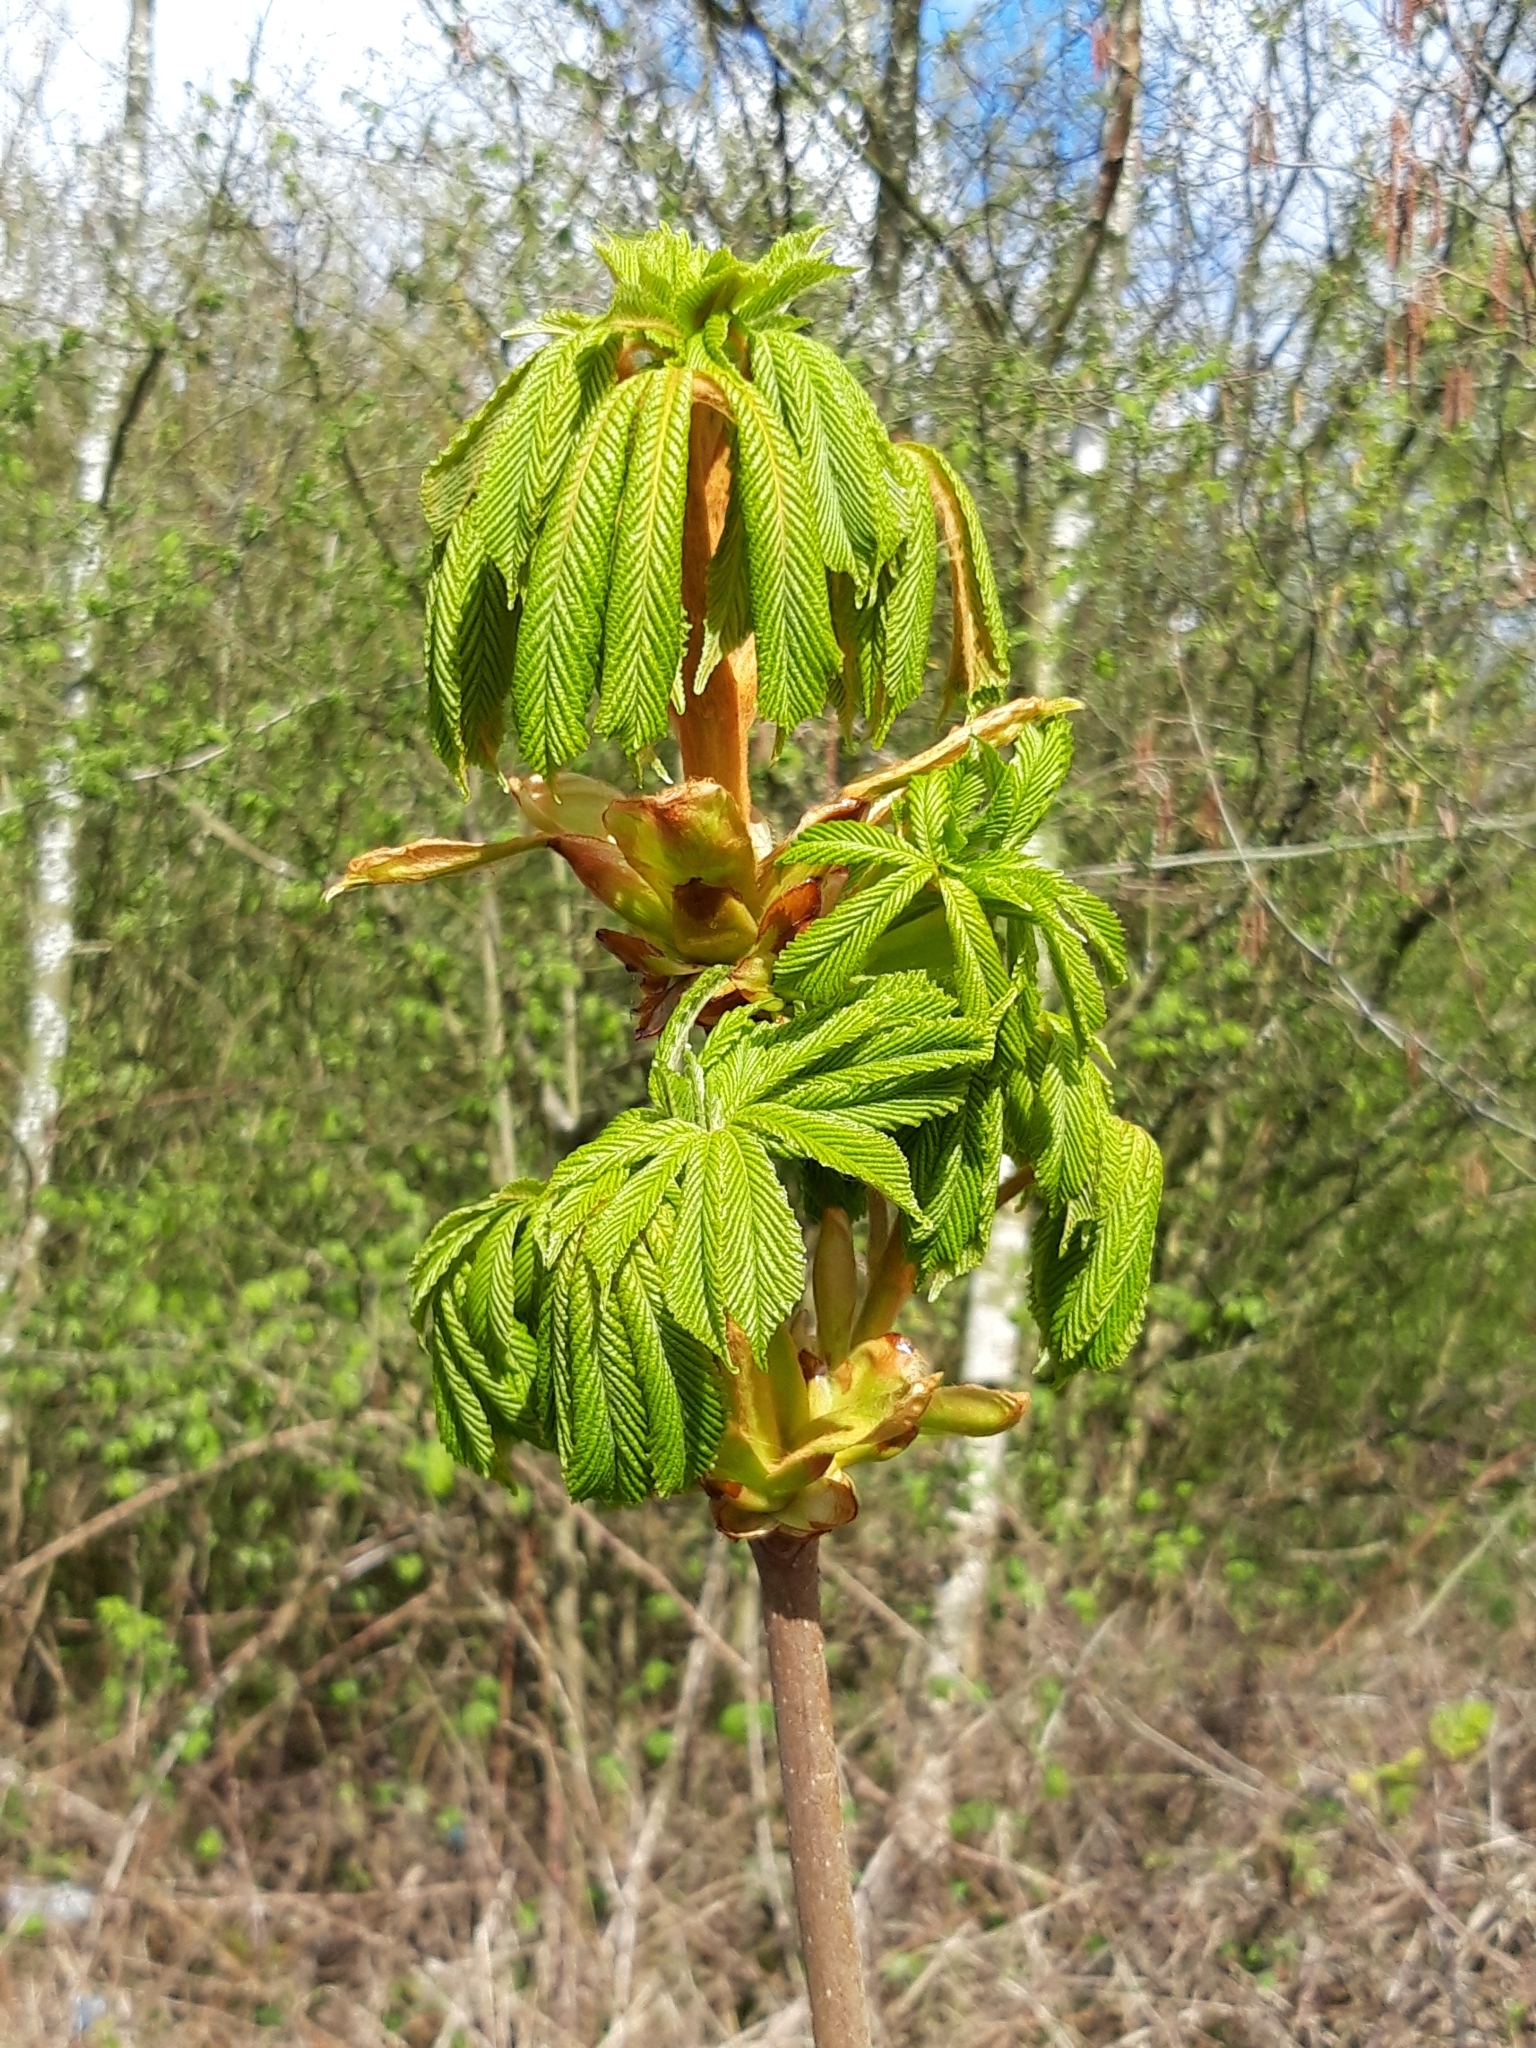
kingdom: Plantae
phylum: Tracheophyta
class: Magnoliopsida
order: Sapindales
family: Sapindaceae
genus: Aesculus
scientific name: Aesculus hippocastanum
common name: Horse-chestnut
